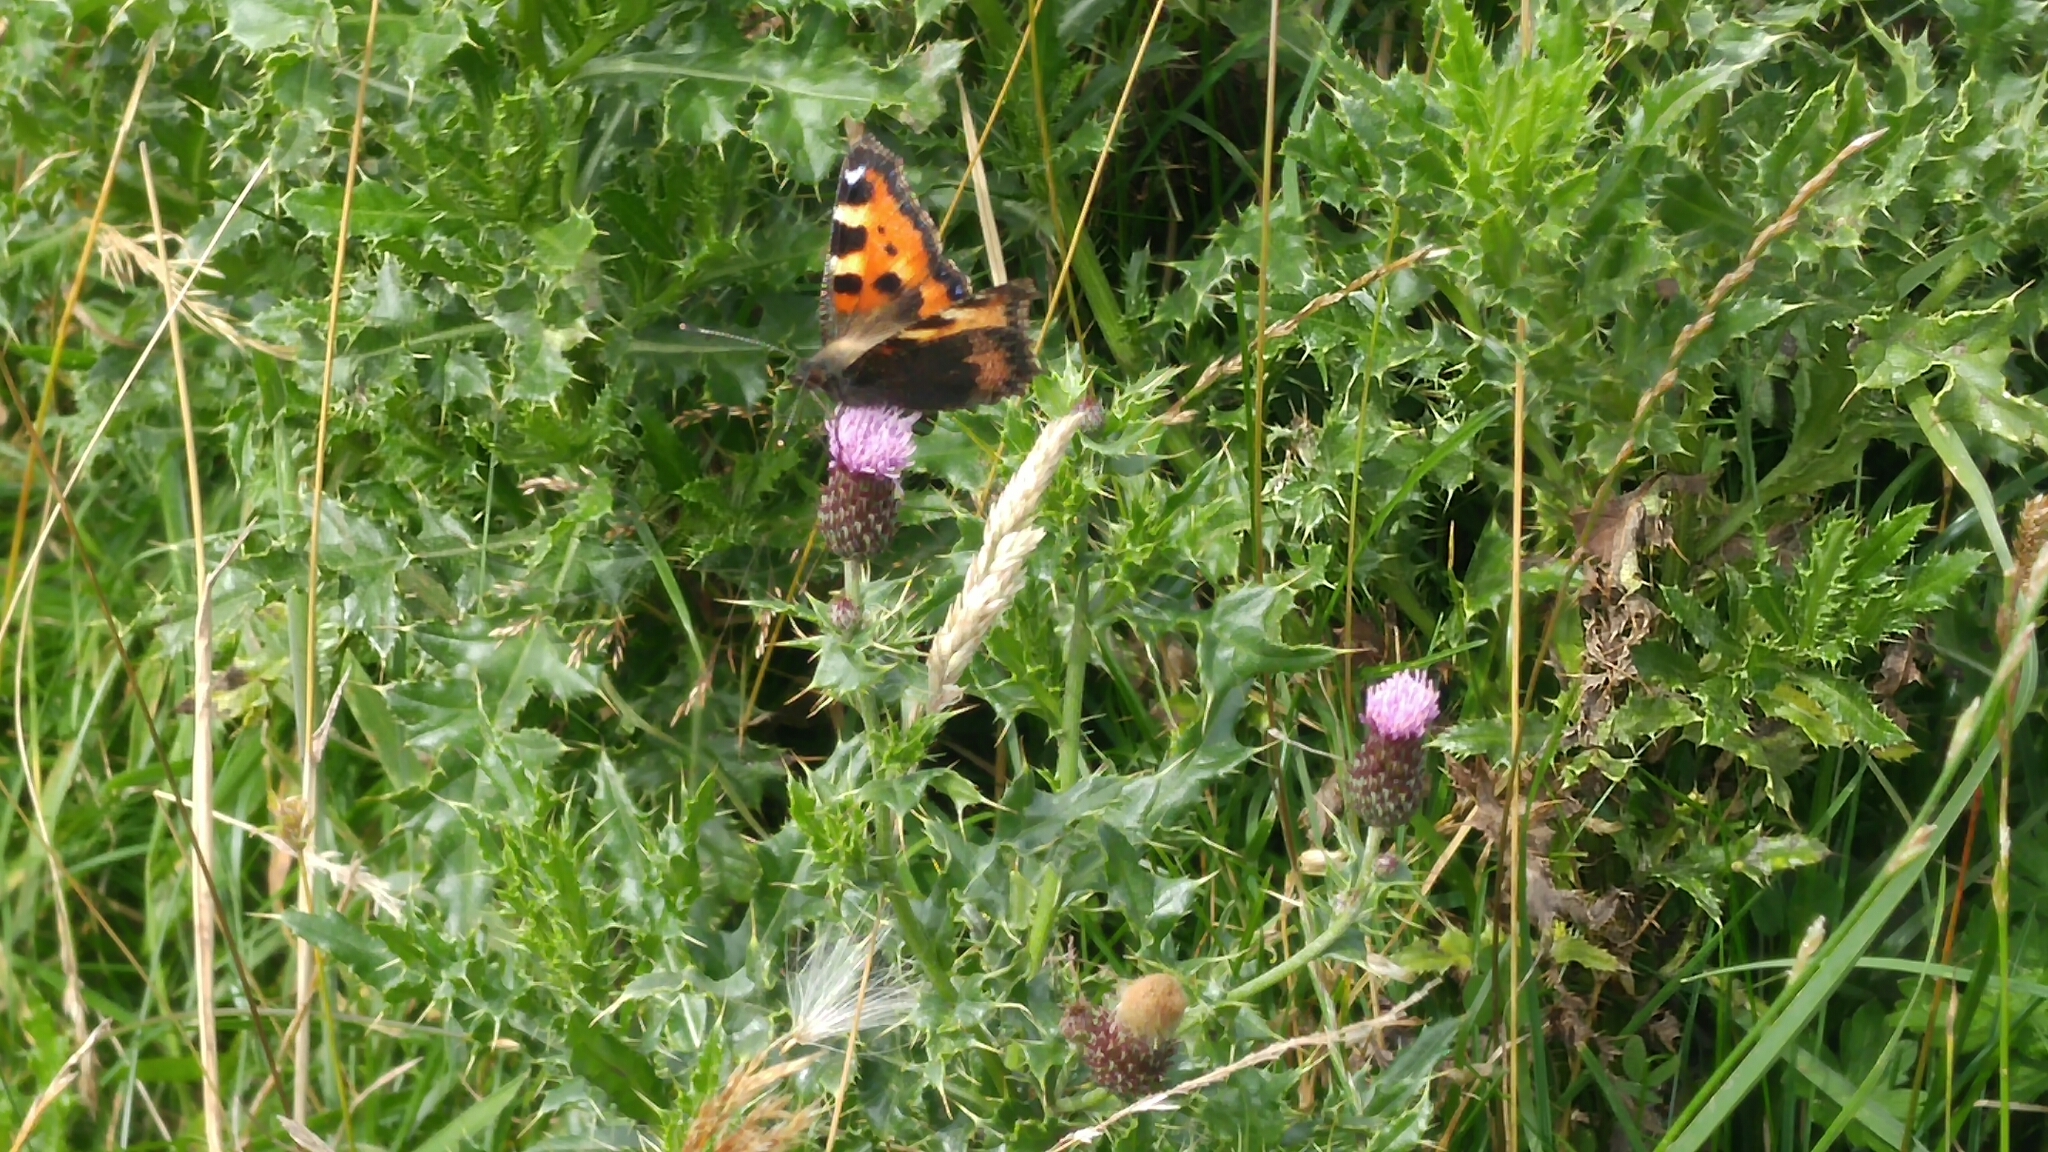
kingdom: Animalia
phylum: Arthropoda
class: Insecta
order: Lepidoptera
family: Nymphalidae
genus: Aglais
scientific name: Aglais urticae
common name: Small tortoiseshell
